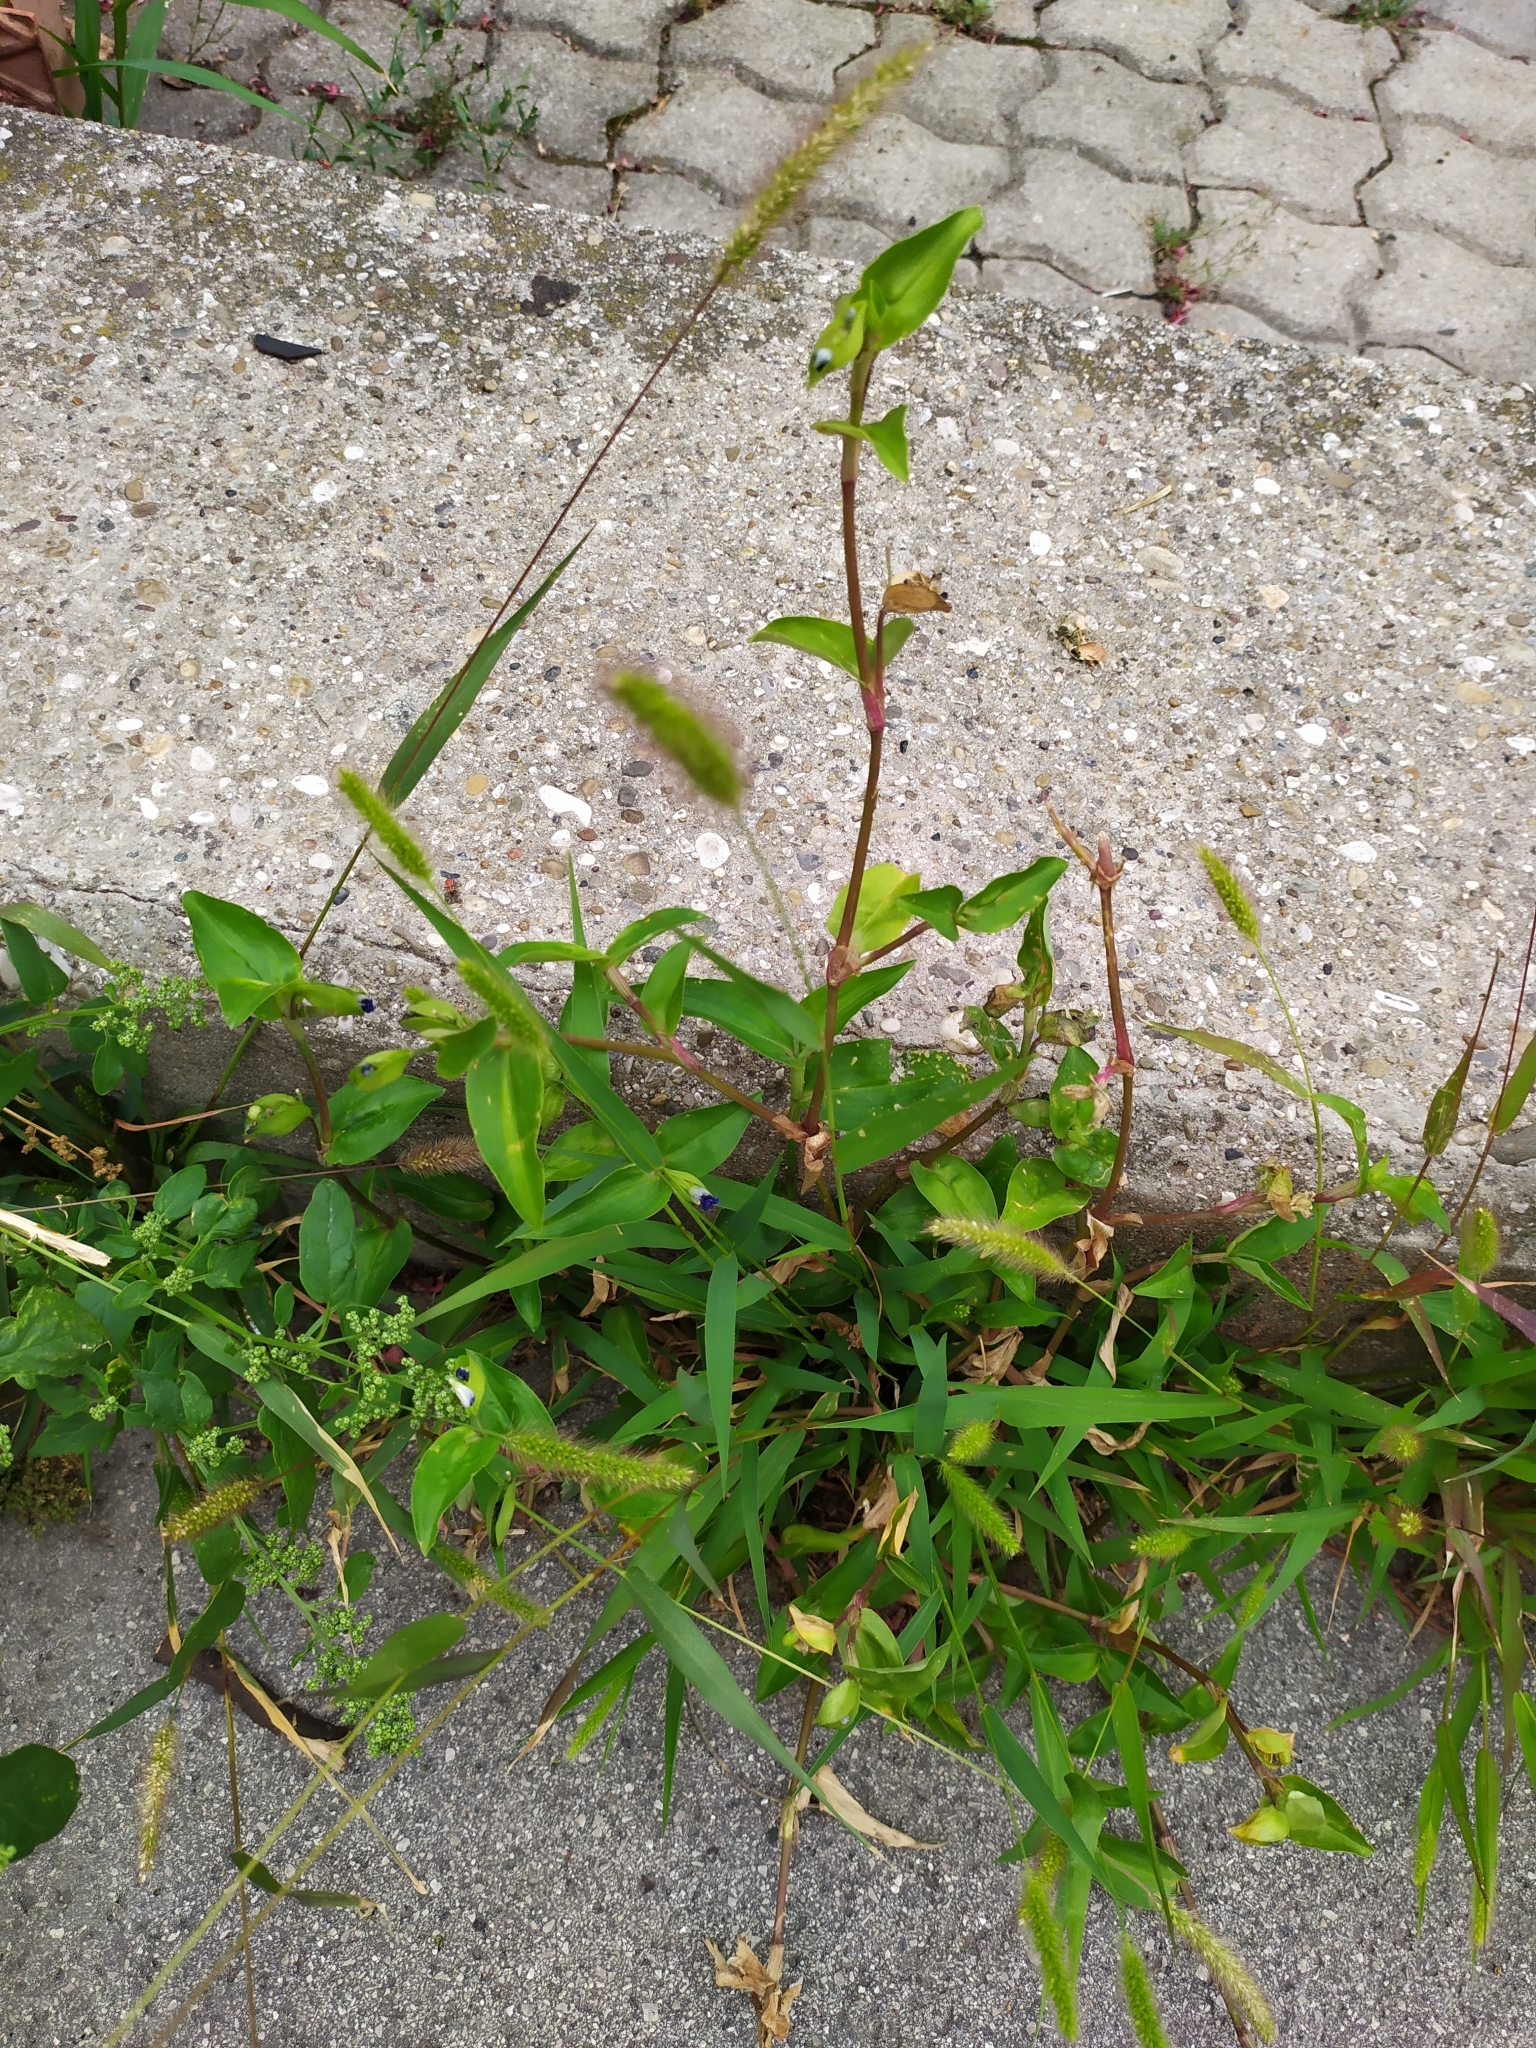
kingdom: Plantae
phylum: Tracheophyta
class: Liliopsida
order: Commelinales
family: Commelinaceae
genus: Commelina
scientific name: Commelina communis
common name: Asiatic dayflower
